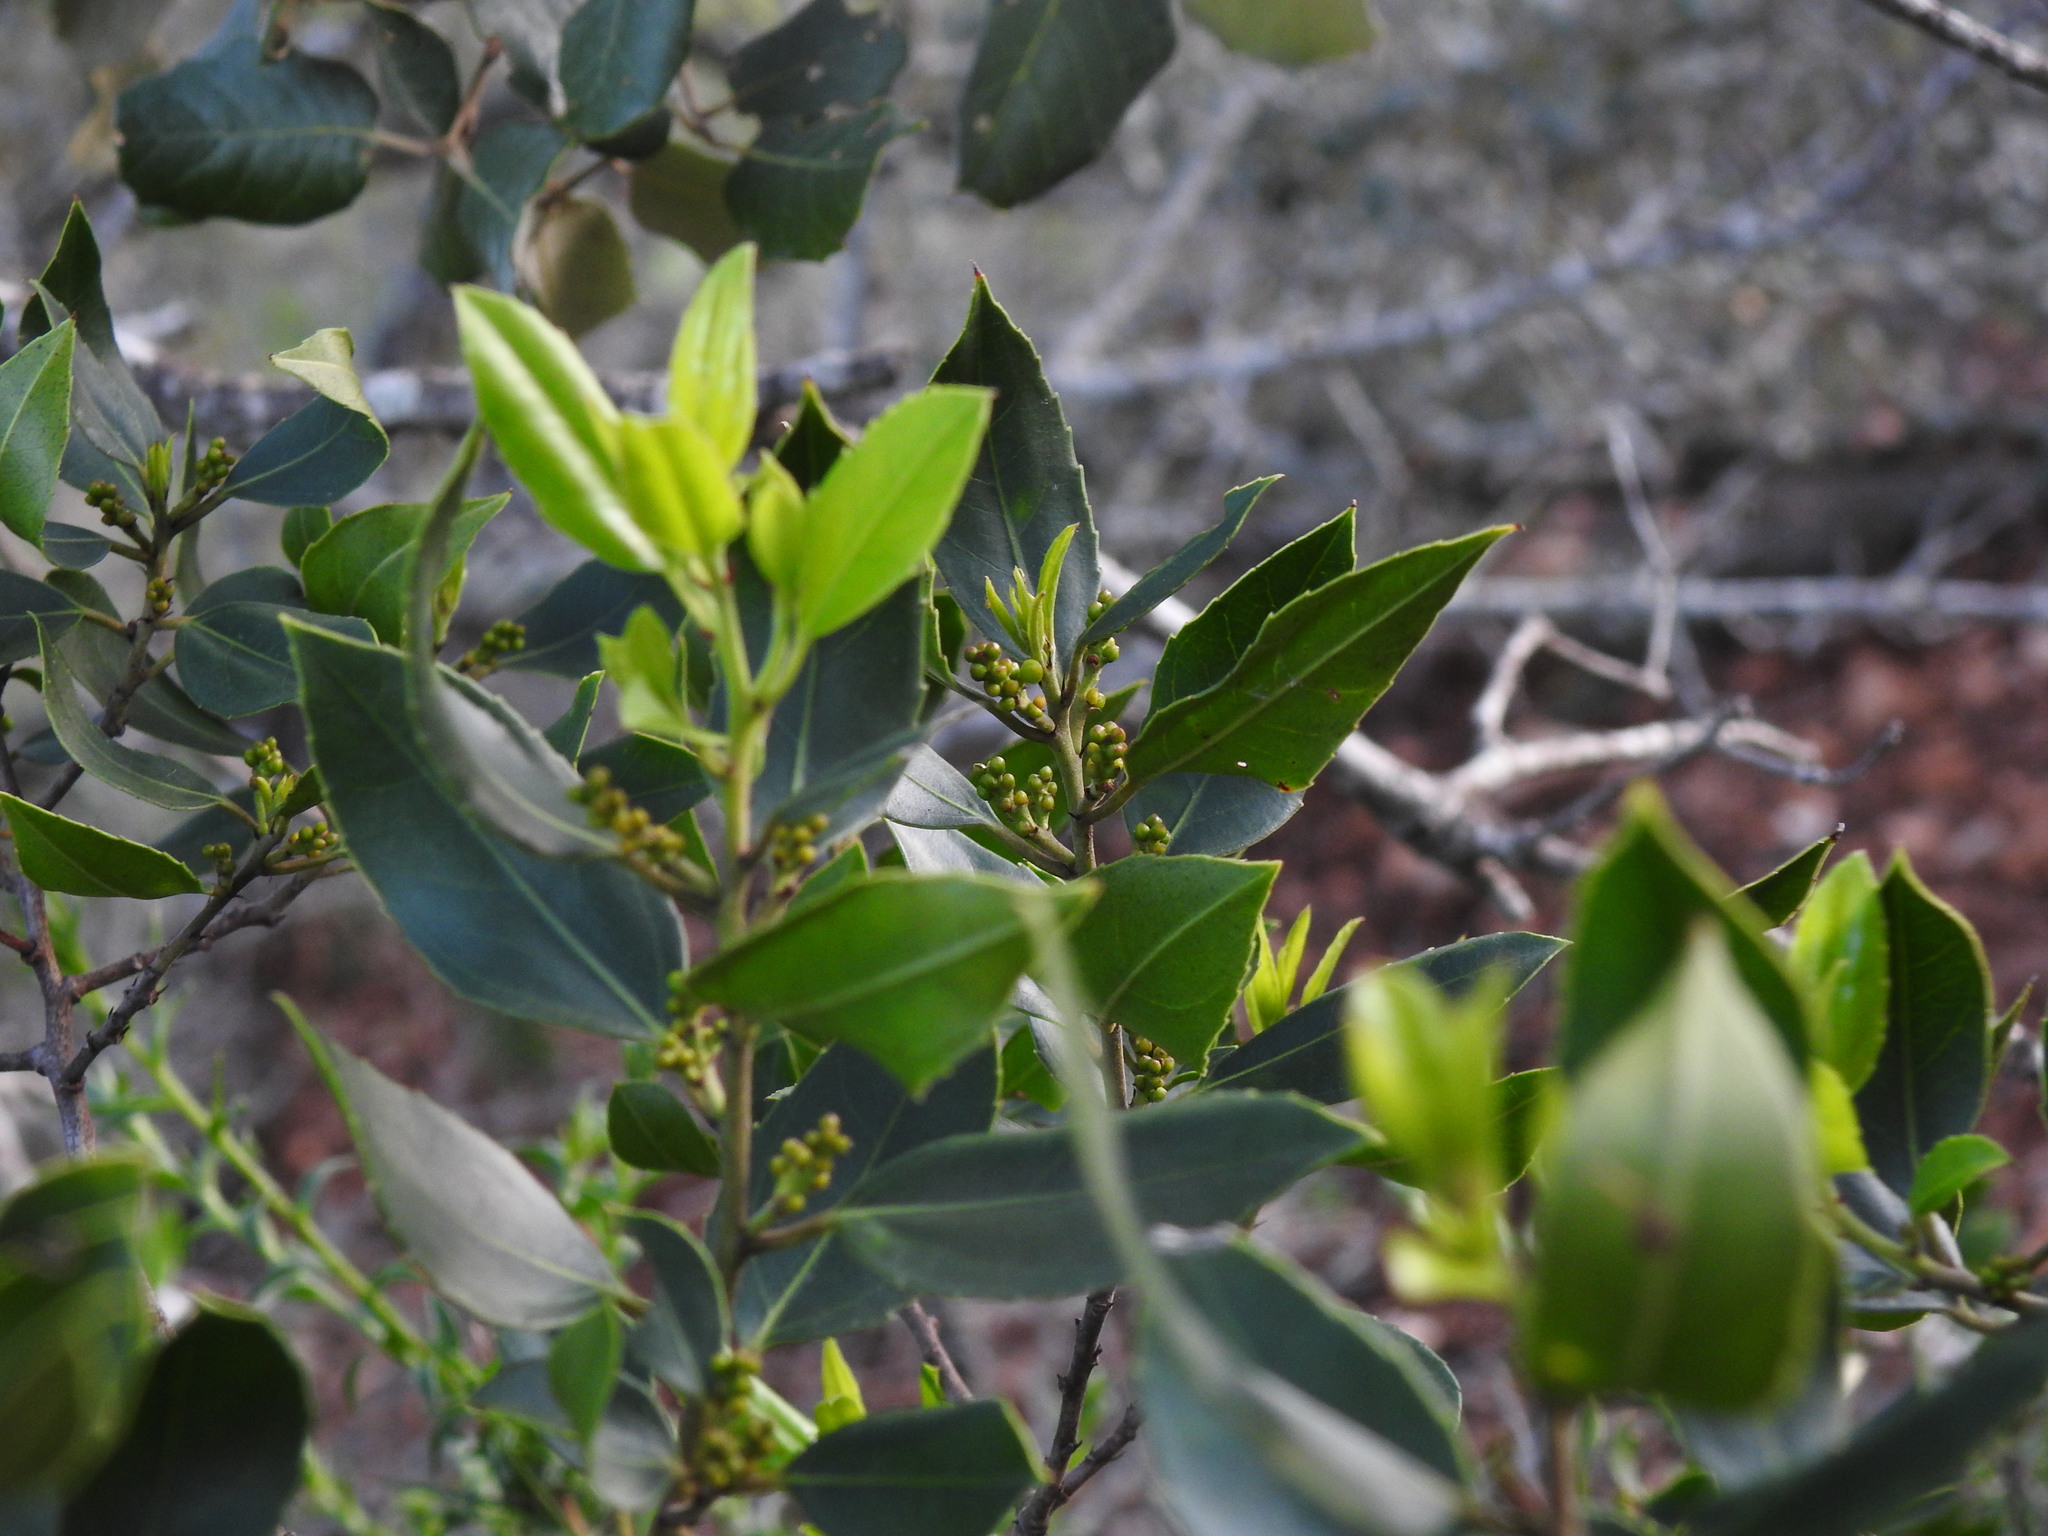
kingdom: Plantae
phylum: Tracheophyta
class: Magnoliopsida
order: Rosales
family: Rhamnaceae
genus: Rhamnus
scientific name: Rhamnus alaternus
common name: Mediterranean buckthorn
